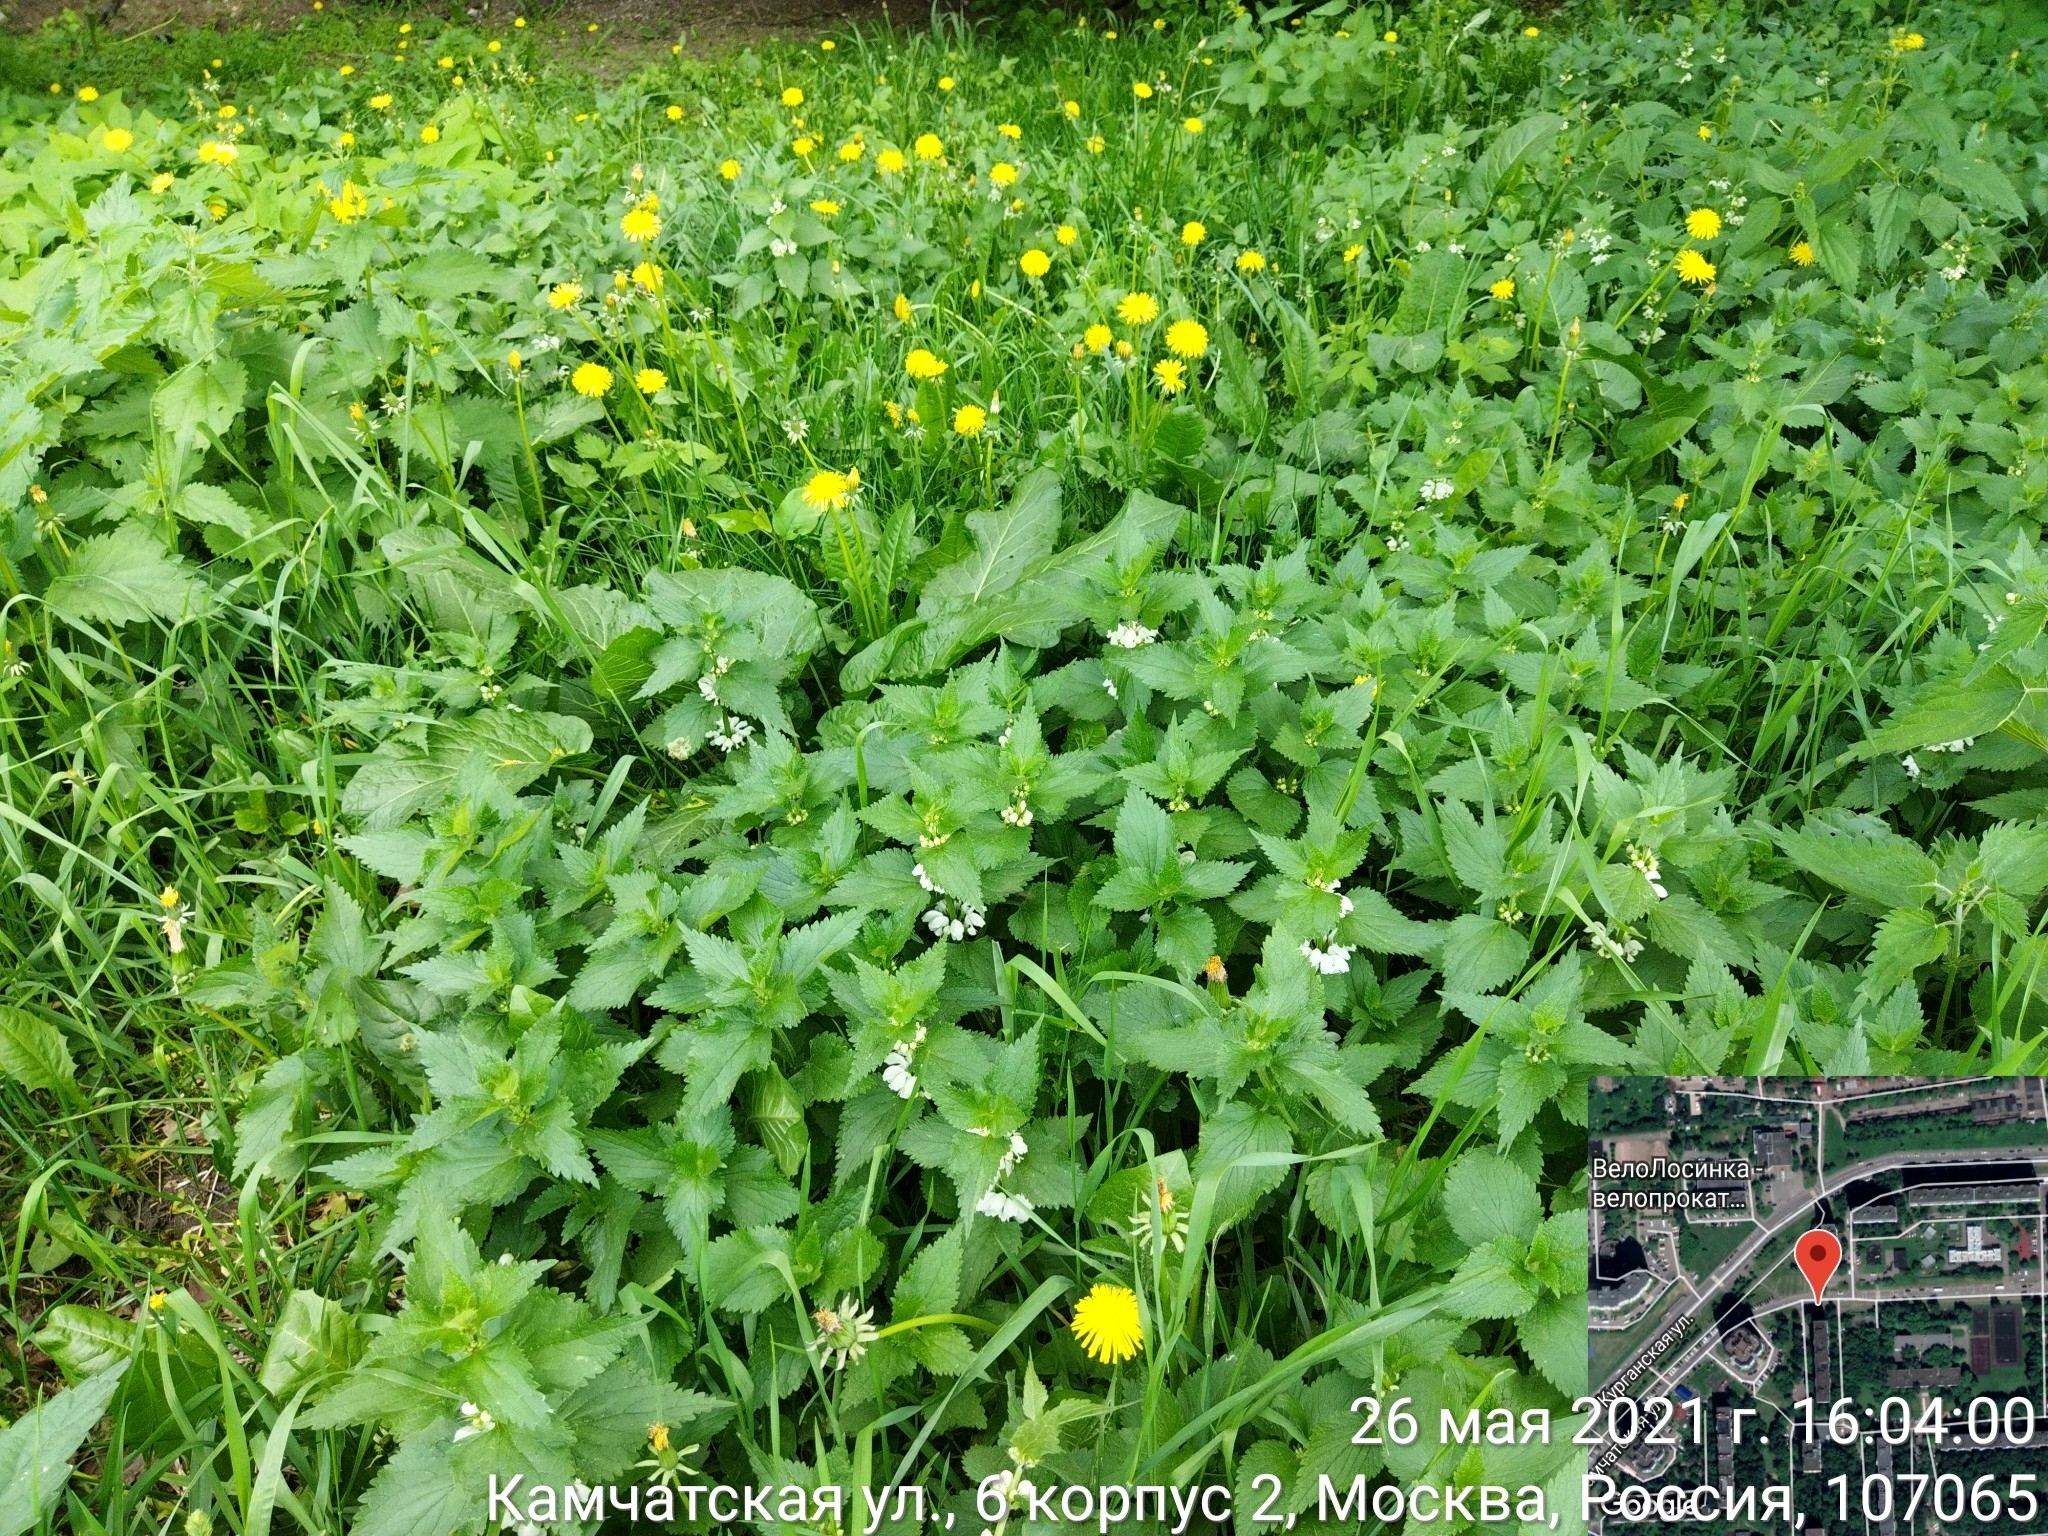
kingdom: Plantae
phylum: Tracheophyta
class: Magnoliopsida
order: Lamiales
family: Lamiaceae
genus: Lamium
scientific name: Lamium album
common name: White dead-nettle
